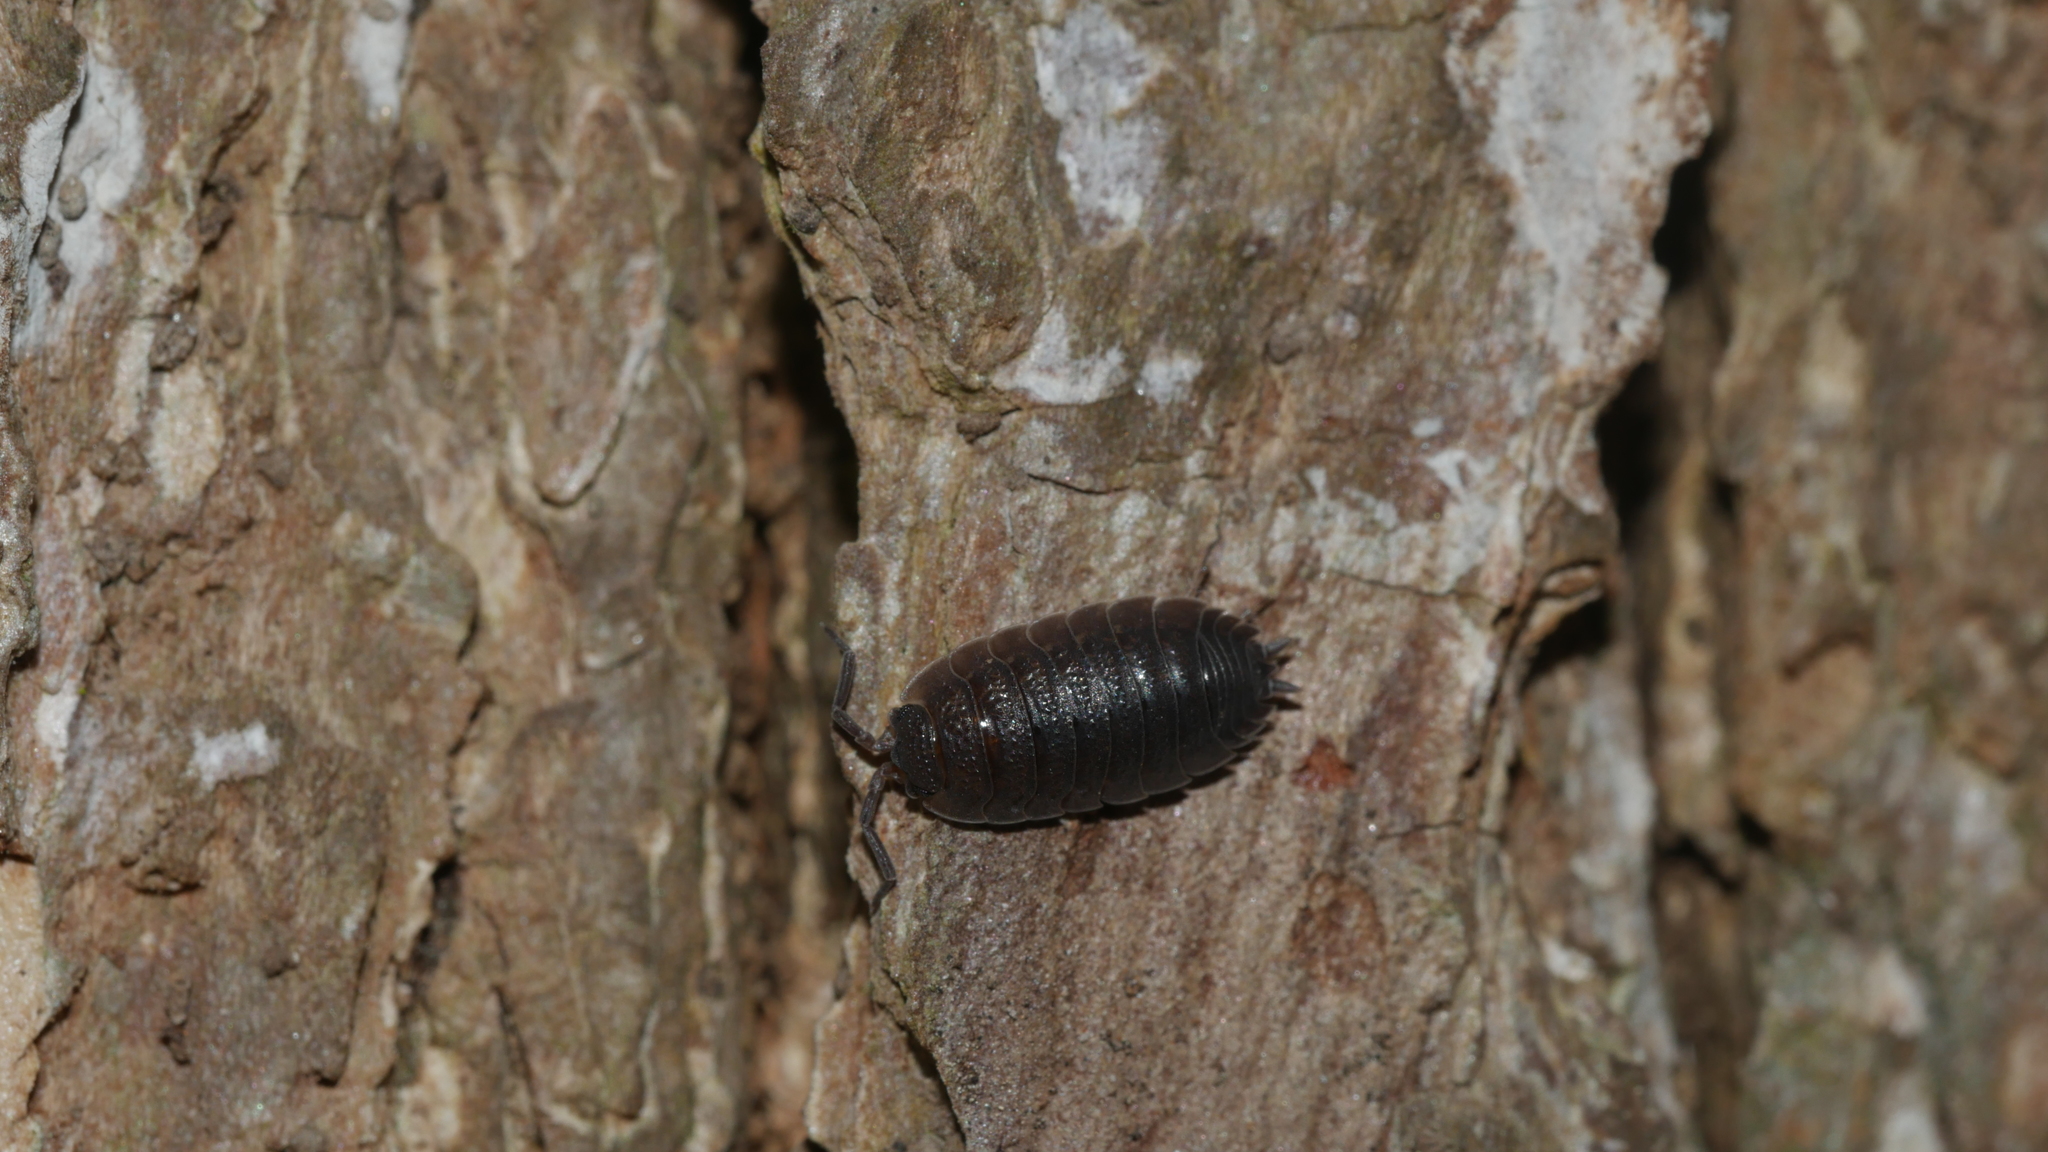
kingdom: Animalia
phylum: Arthropoda
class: Malacostraca
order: Isopoda
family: Porcellionidae
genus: Porcellio
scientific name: Porcellio scaber
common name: Common rough woodlouse
